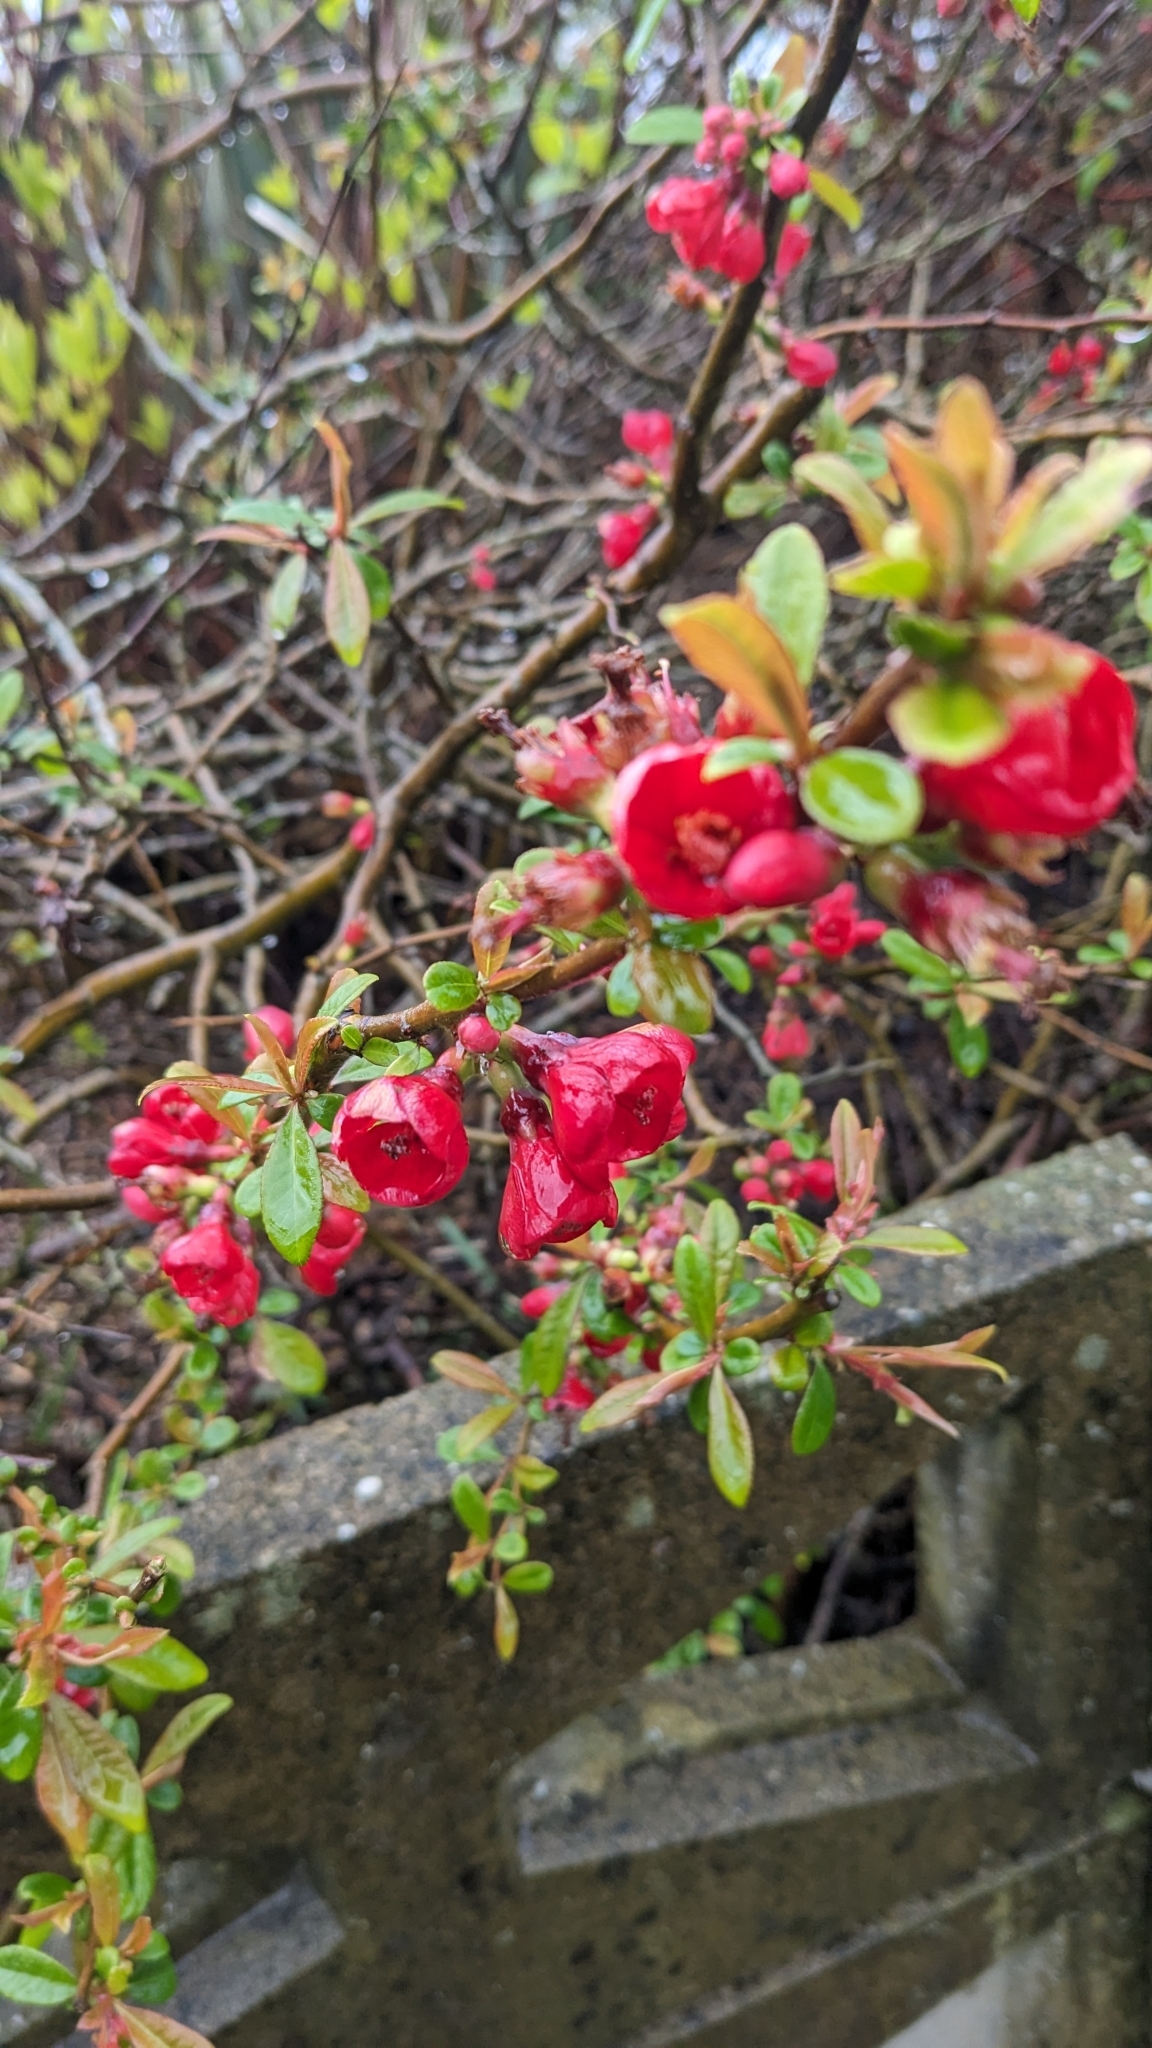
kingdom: Plantae
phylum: Tracheophyta
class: Magnoliopsida
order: Rosales
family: Rosaceae
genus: Chaenomeles
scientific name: Chaenomeles speciosa
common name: Japanese quince
